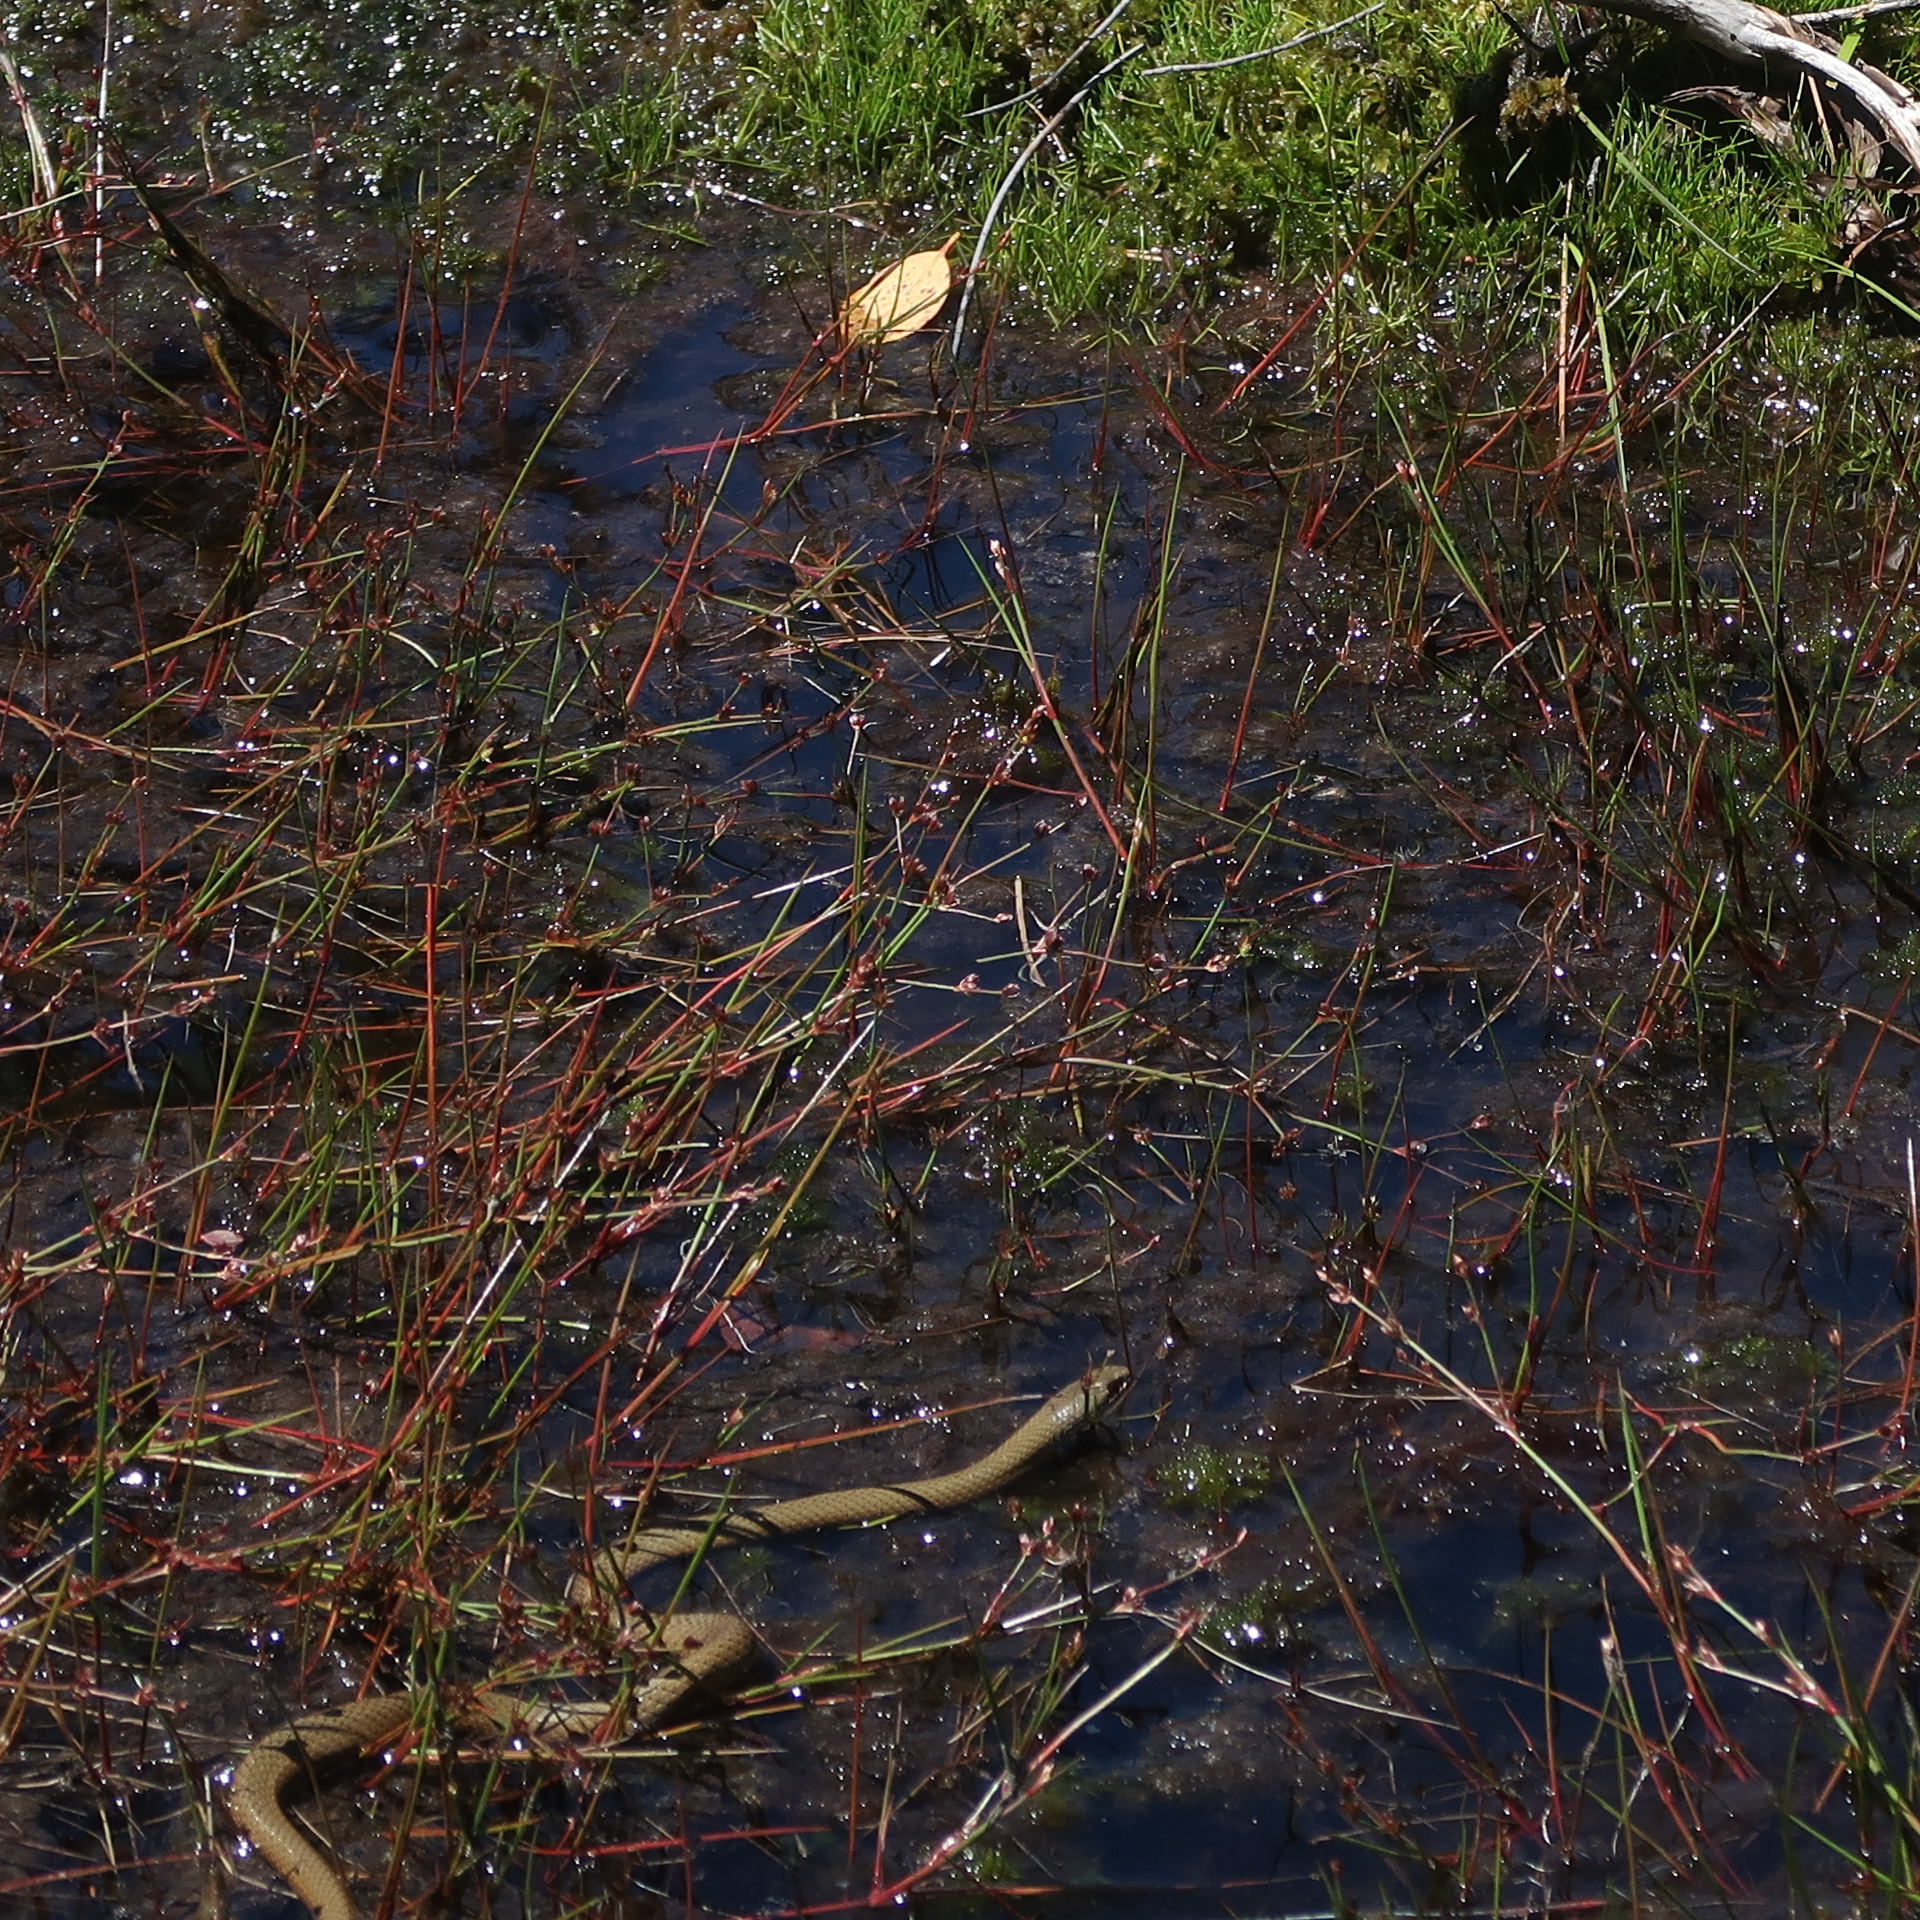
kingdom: Animalia
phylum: Chordata
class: Squamata
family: Elapidae
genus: Drysdalia
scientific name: Drysdalia coronoides
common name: White-lipped snake
